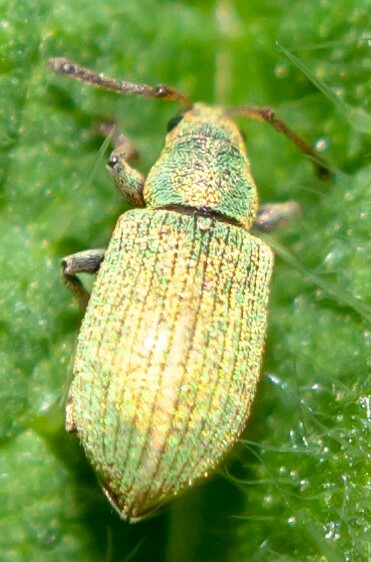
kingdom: Animalia
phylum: Arthropoda
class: Insecta
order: Coleoptera
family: Curculionidae
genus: Phyllobius
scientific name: Phyllobius roboretanus
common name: Small green nettle weevil
